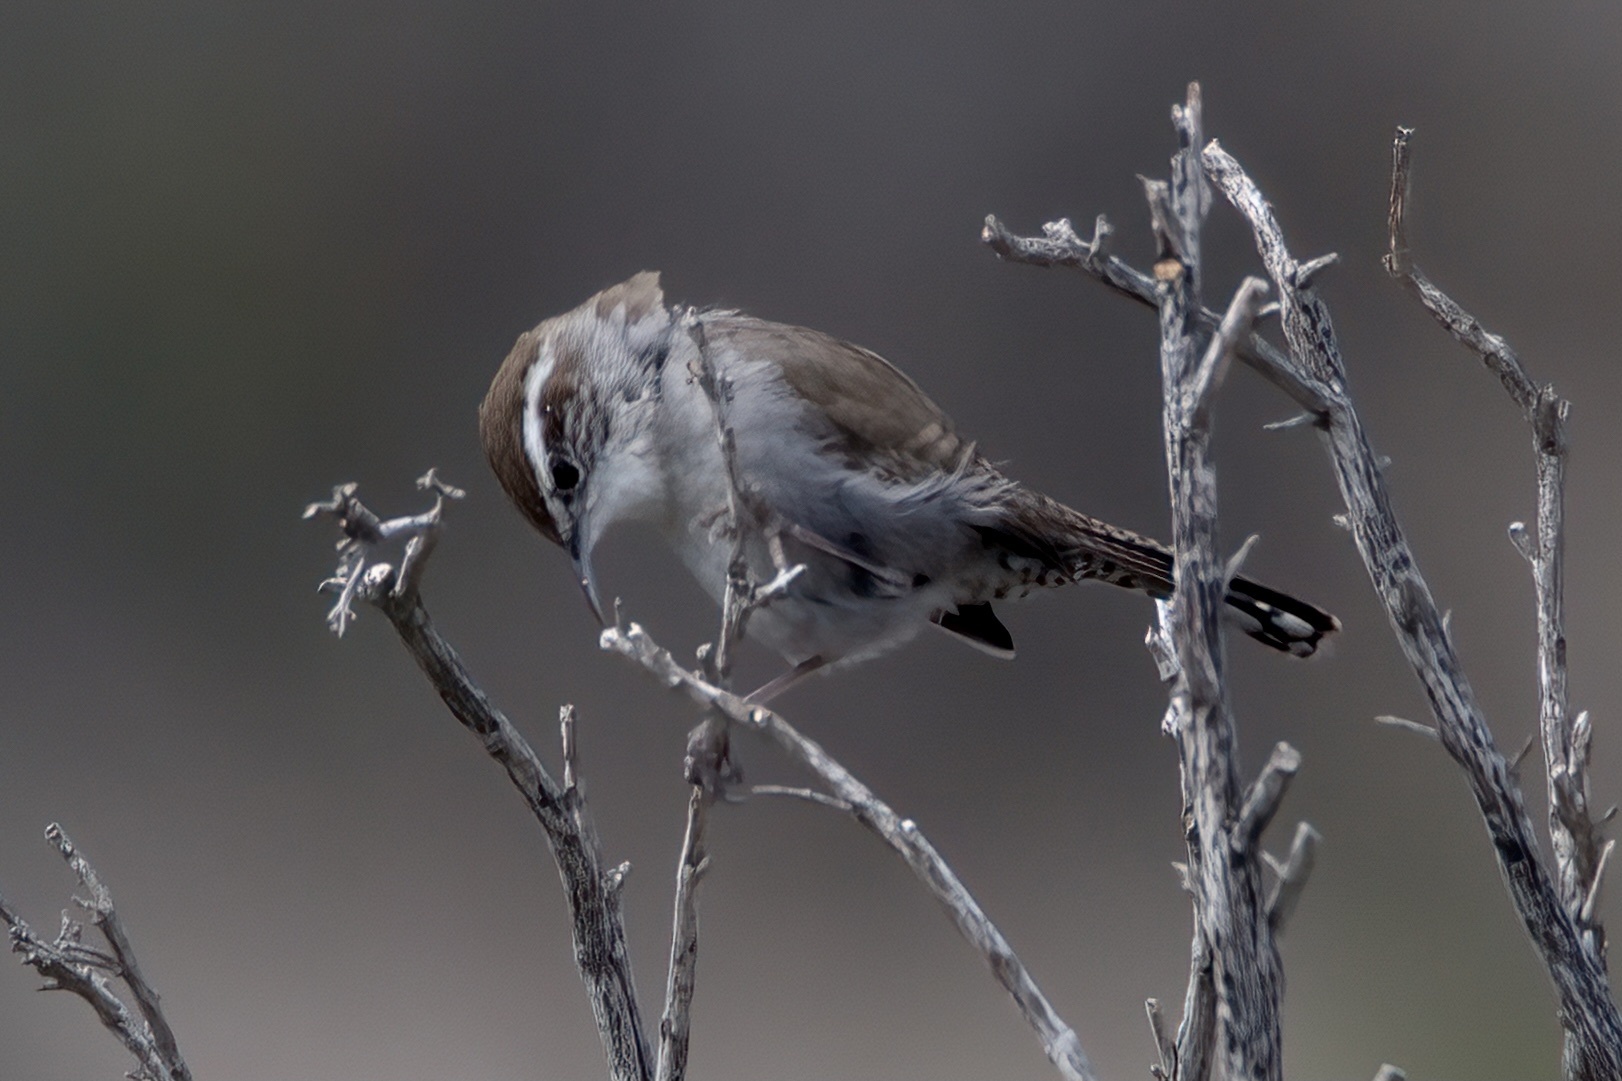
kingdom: Animalia
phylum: Chordata
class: Aves
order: Passeriformes
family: Troglodytidae
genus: Thryomanes
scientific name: Thryomanes bewickii
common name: Bewick's wren
